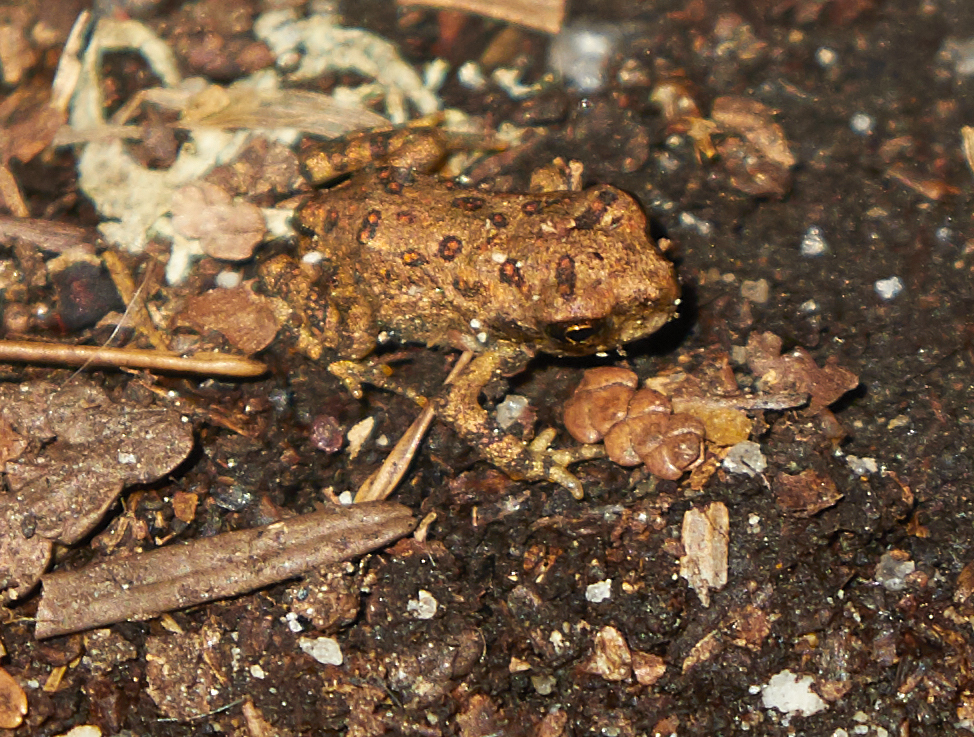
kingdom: Animalia
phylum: Chordata
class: Amphibia
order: Anura
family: Bufonidae
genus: Anaxyrus
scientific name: Anaxyrus americanus
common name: American toad
